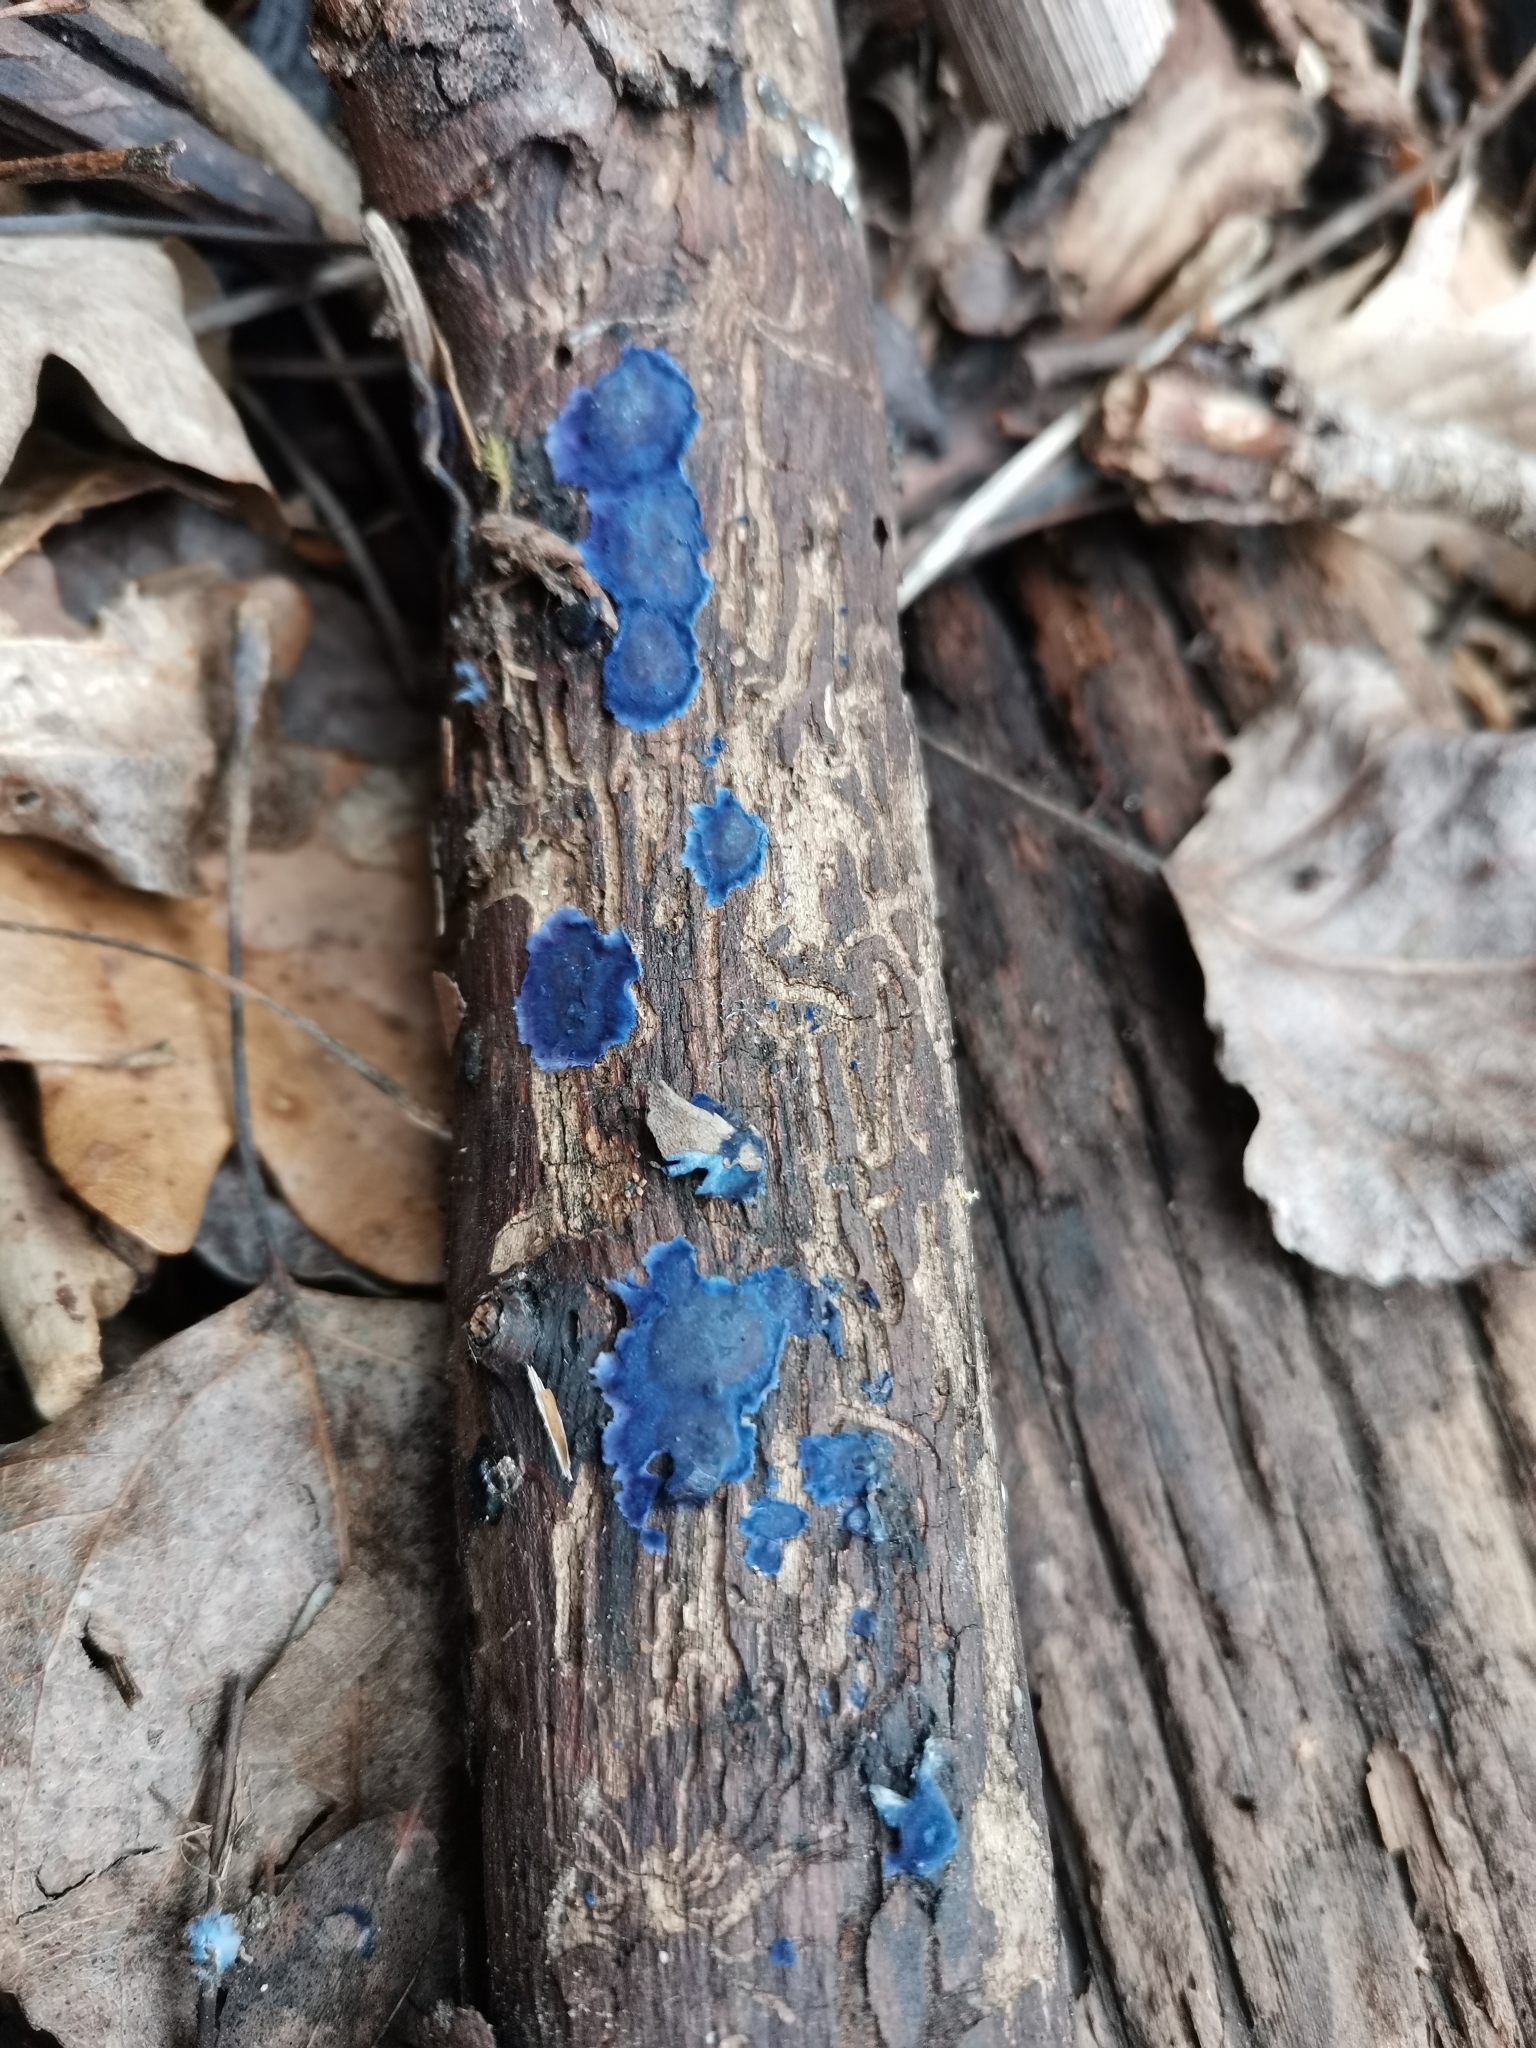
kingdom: Fungi
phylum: Basidiomycota
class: Agaricomycetes
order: Polyporales
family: Phanerochaetaceae
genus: Terana
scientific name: Terana coerulea
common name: Cobalt crust
